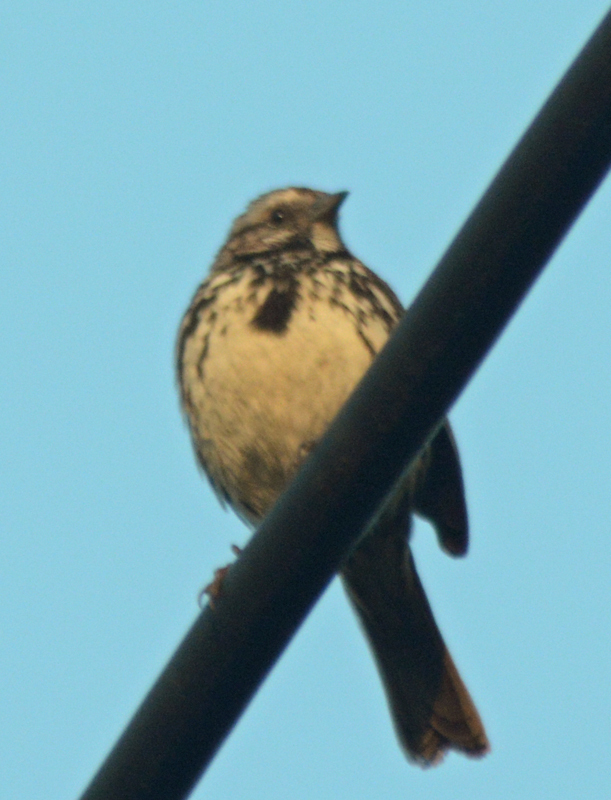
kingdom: Animalia
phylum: Chordata
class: Aves
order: Passeriformes
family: Passerellidae
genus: Melospiza
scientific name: Melospiza melodia
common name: Song sparrow
